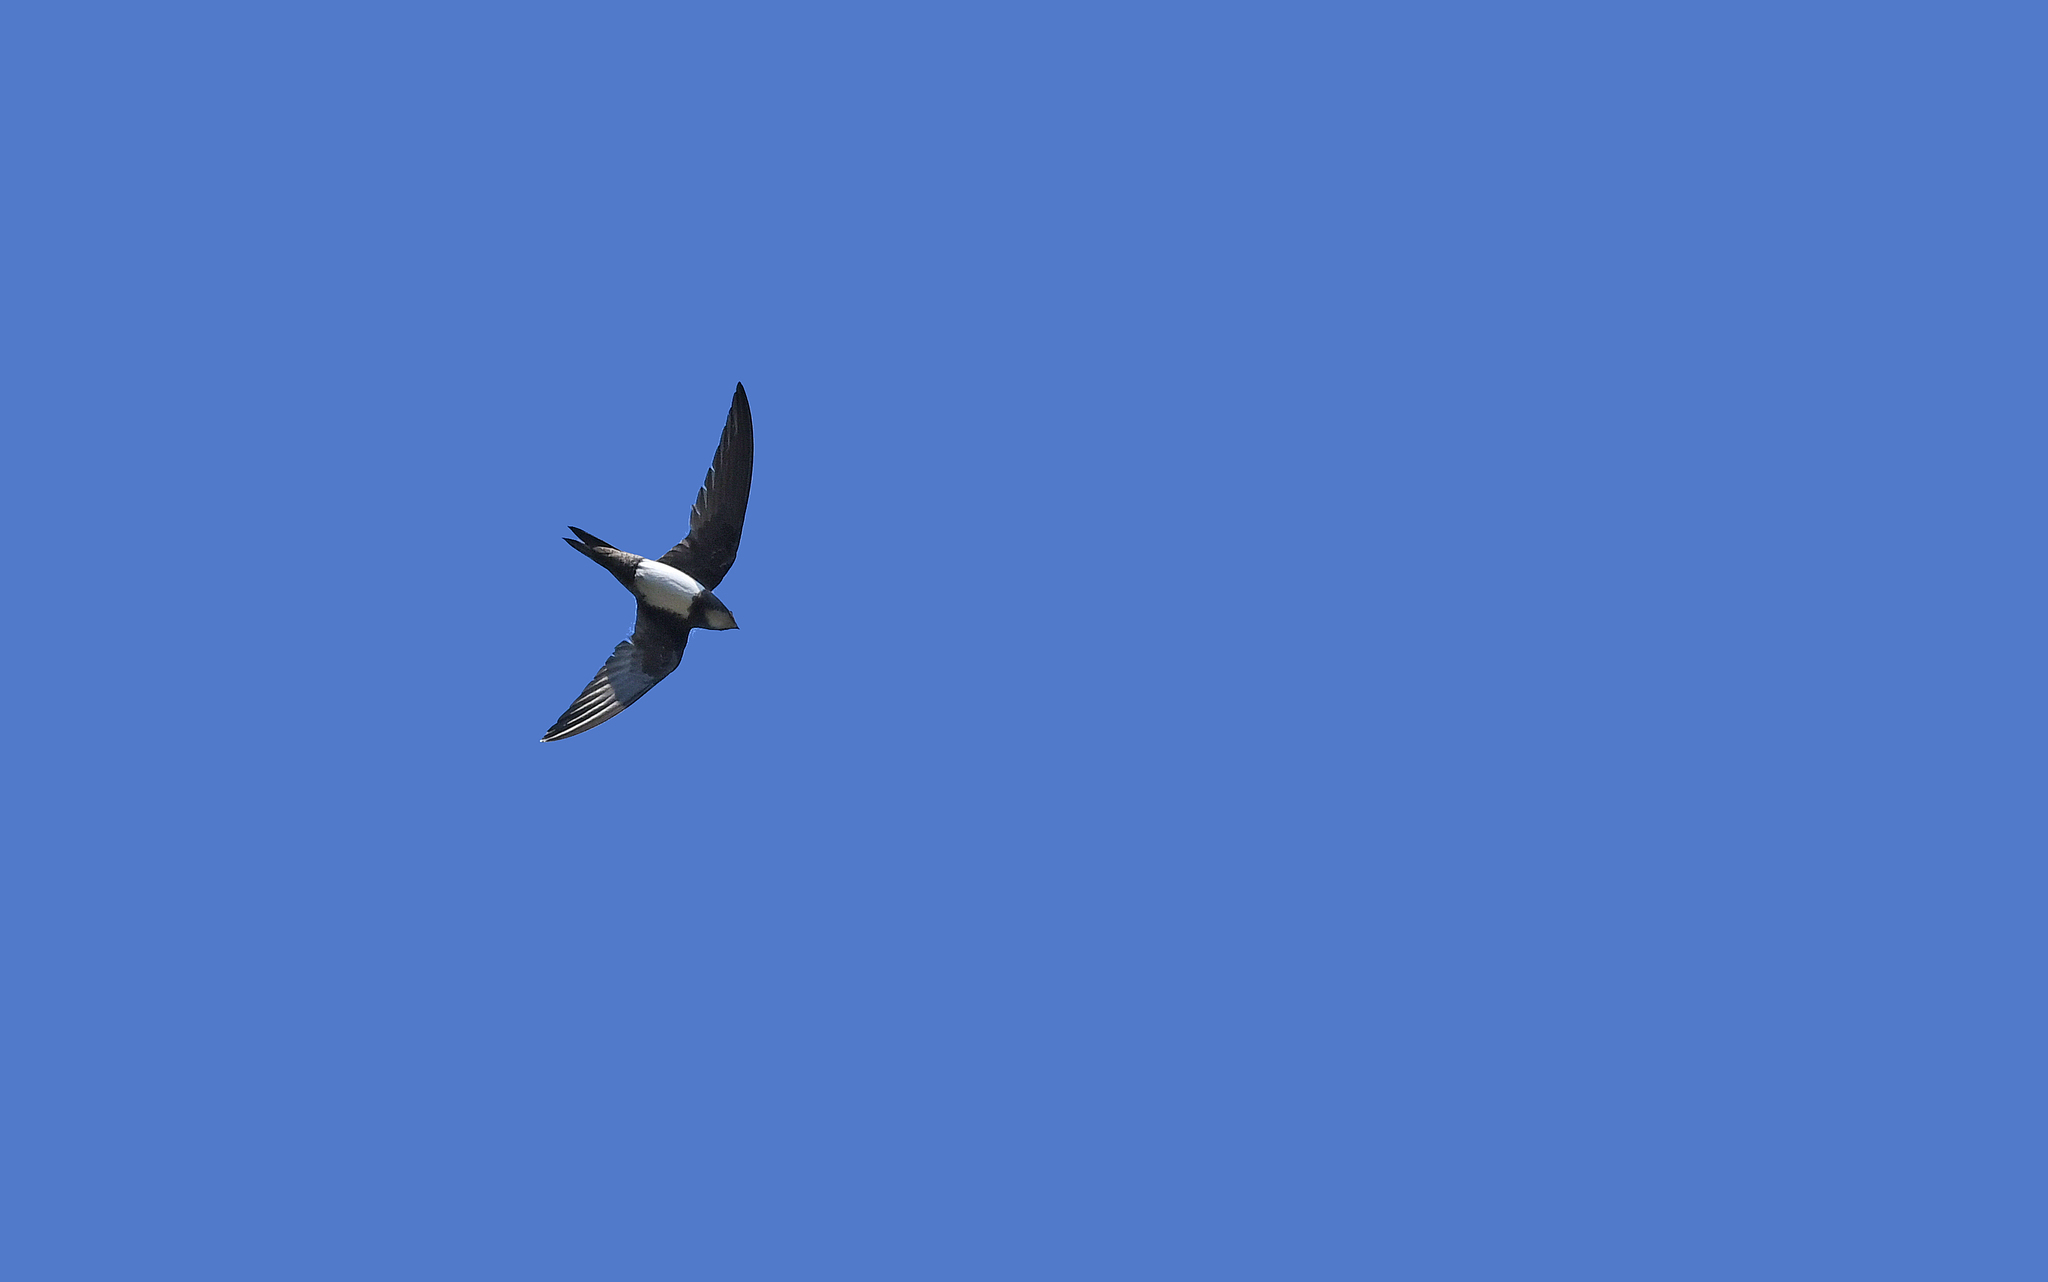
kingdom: Animalia
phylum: Chordata
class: Aves
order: Apodiformes
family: Apodidae
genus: Tachymarptis
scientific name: Tachymarptis melba
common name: Alpine swift
